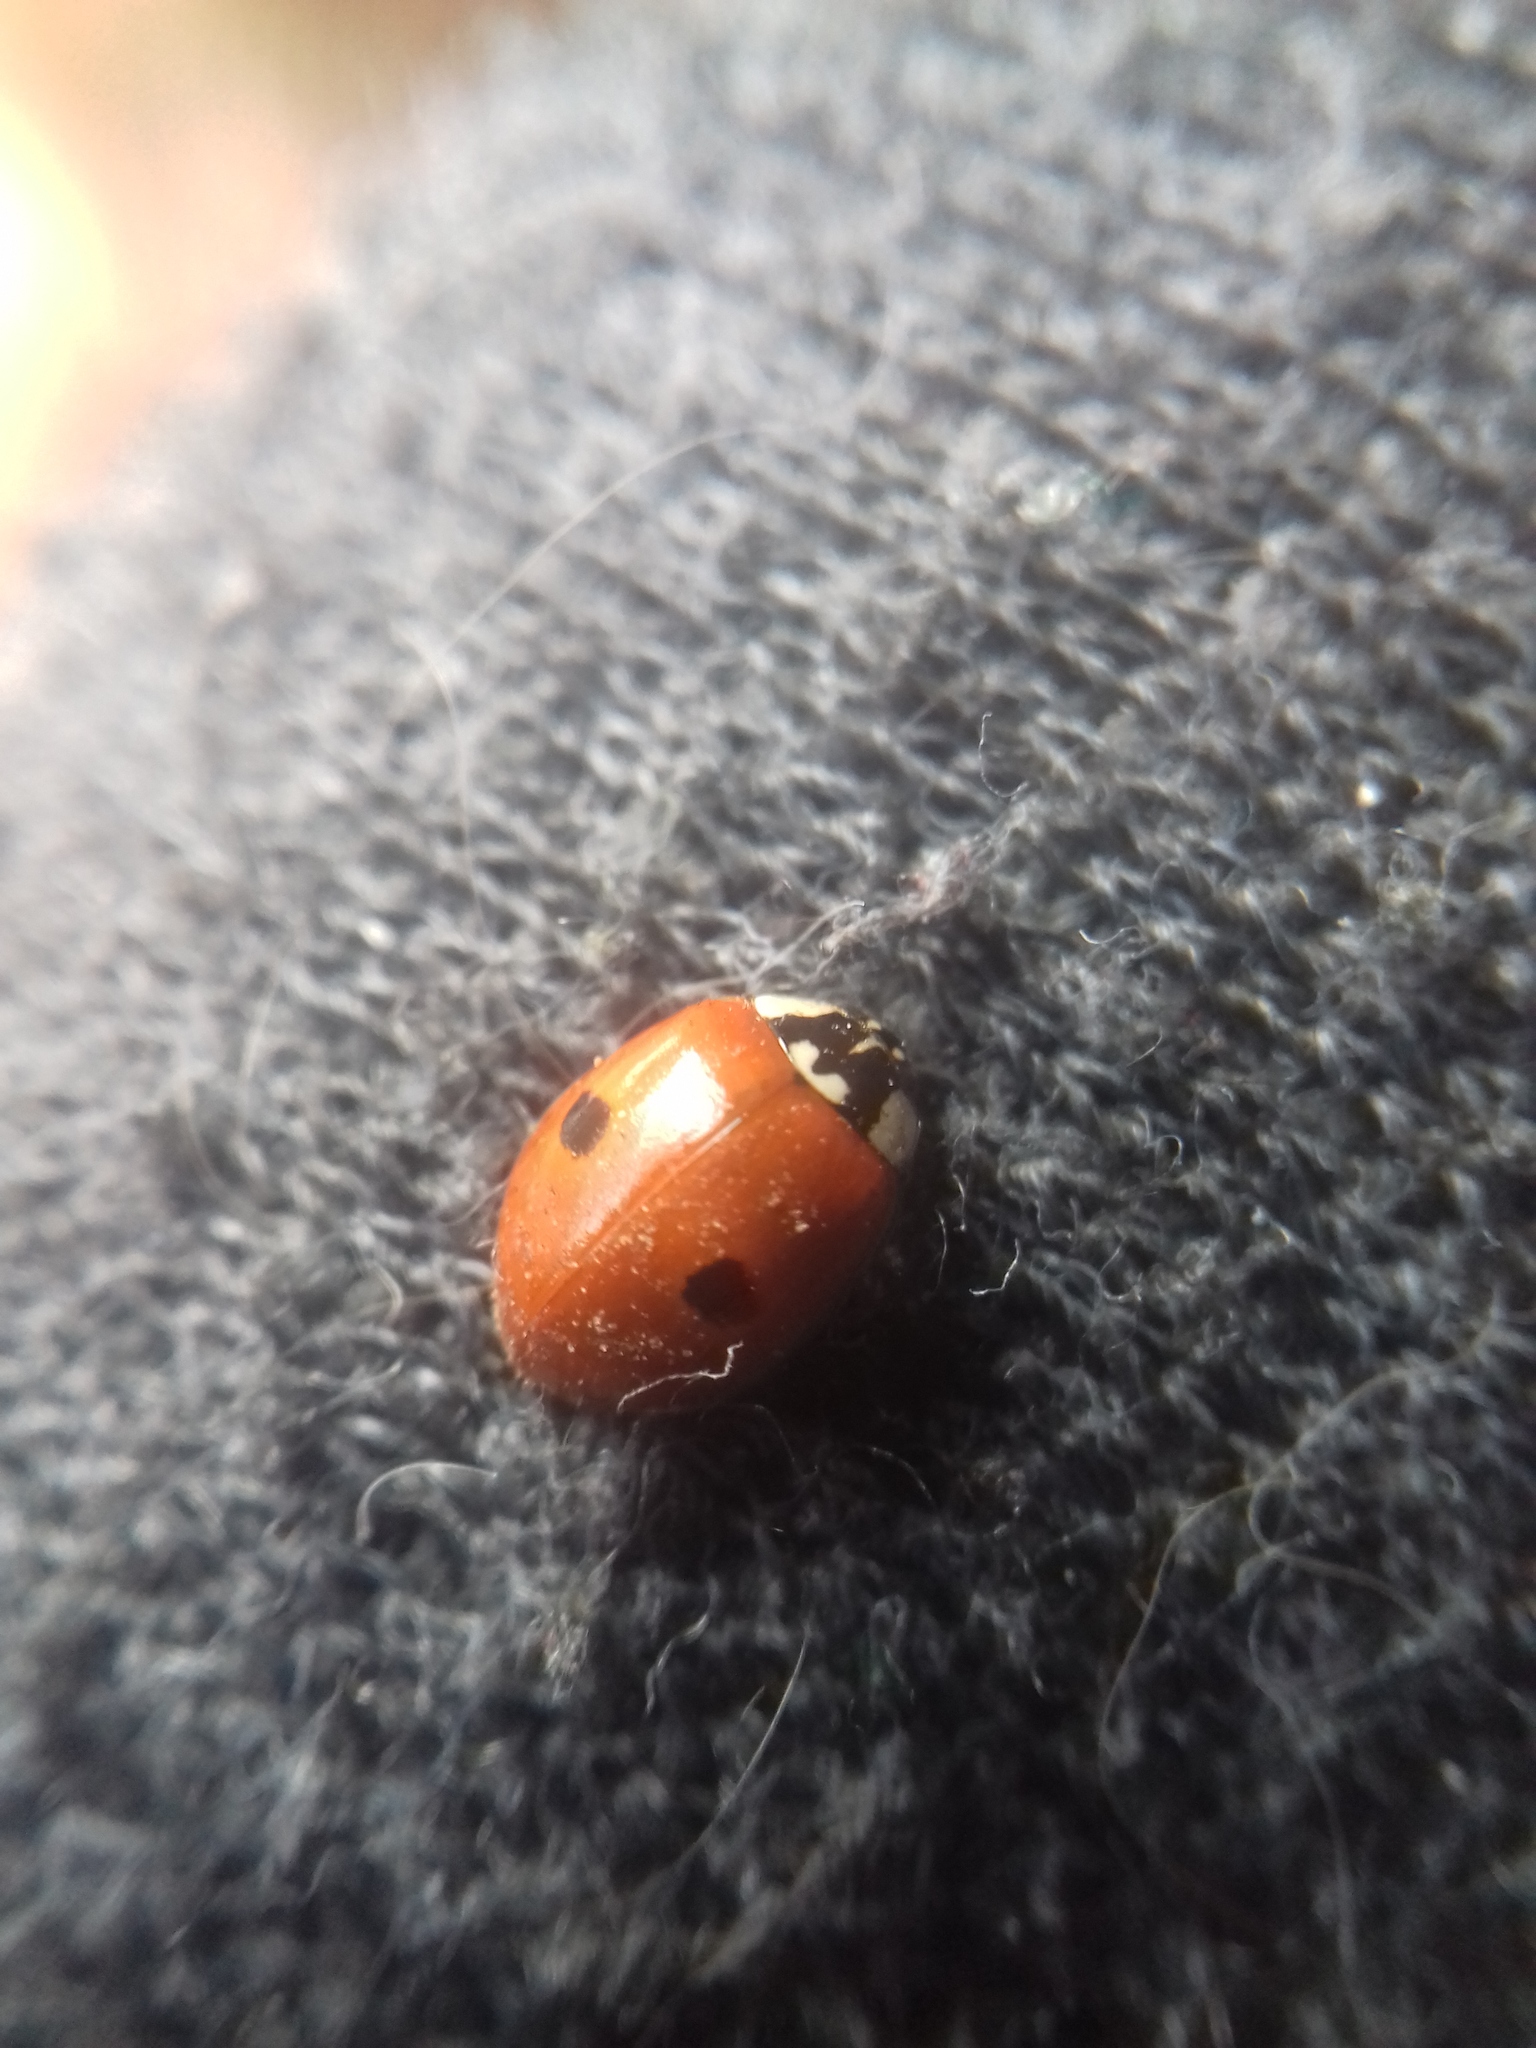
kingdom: Animalia
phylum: Arthropoda
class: Insecta
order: Coleoptera
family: Coccinellidae
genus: Adalia
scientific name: Adalia bipunctata
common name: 2-spot ladybird
